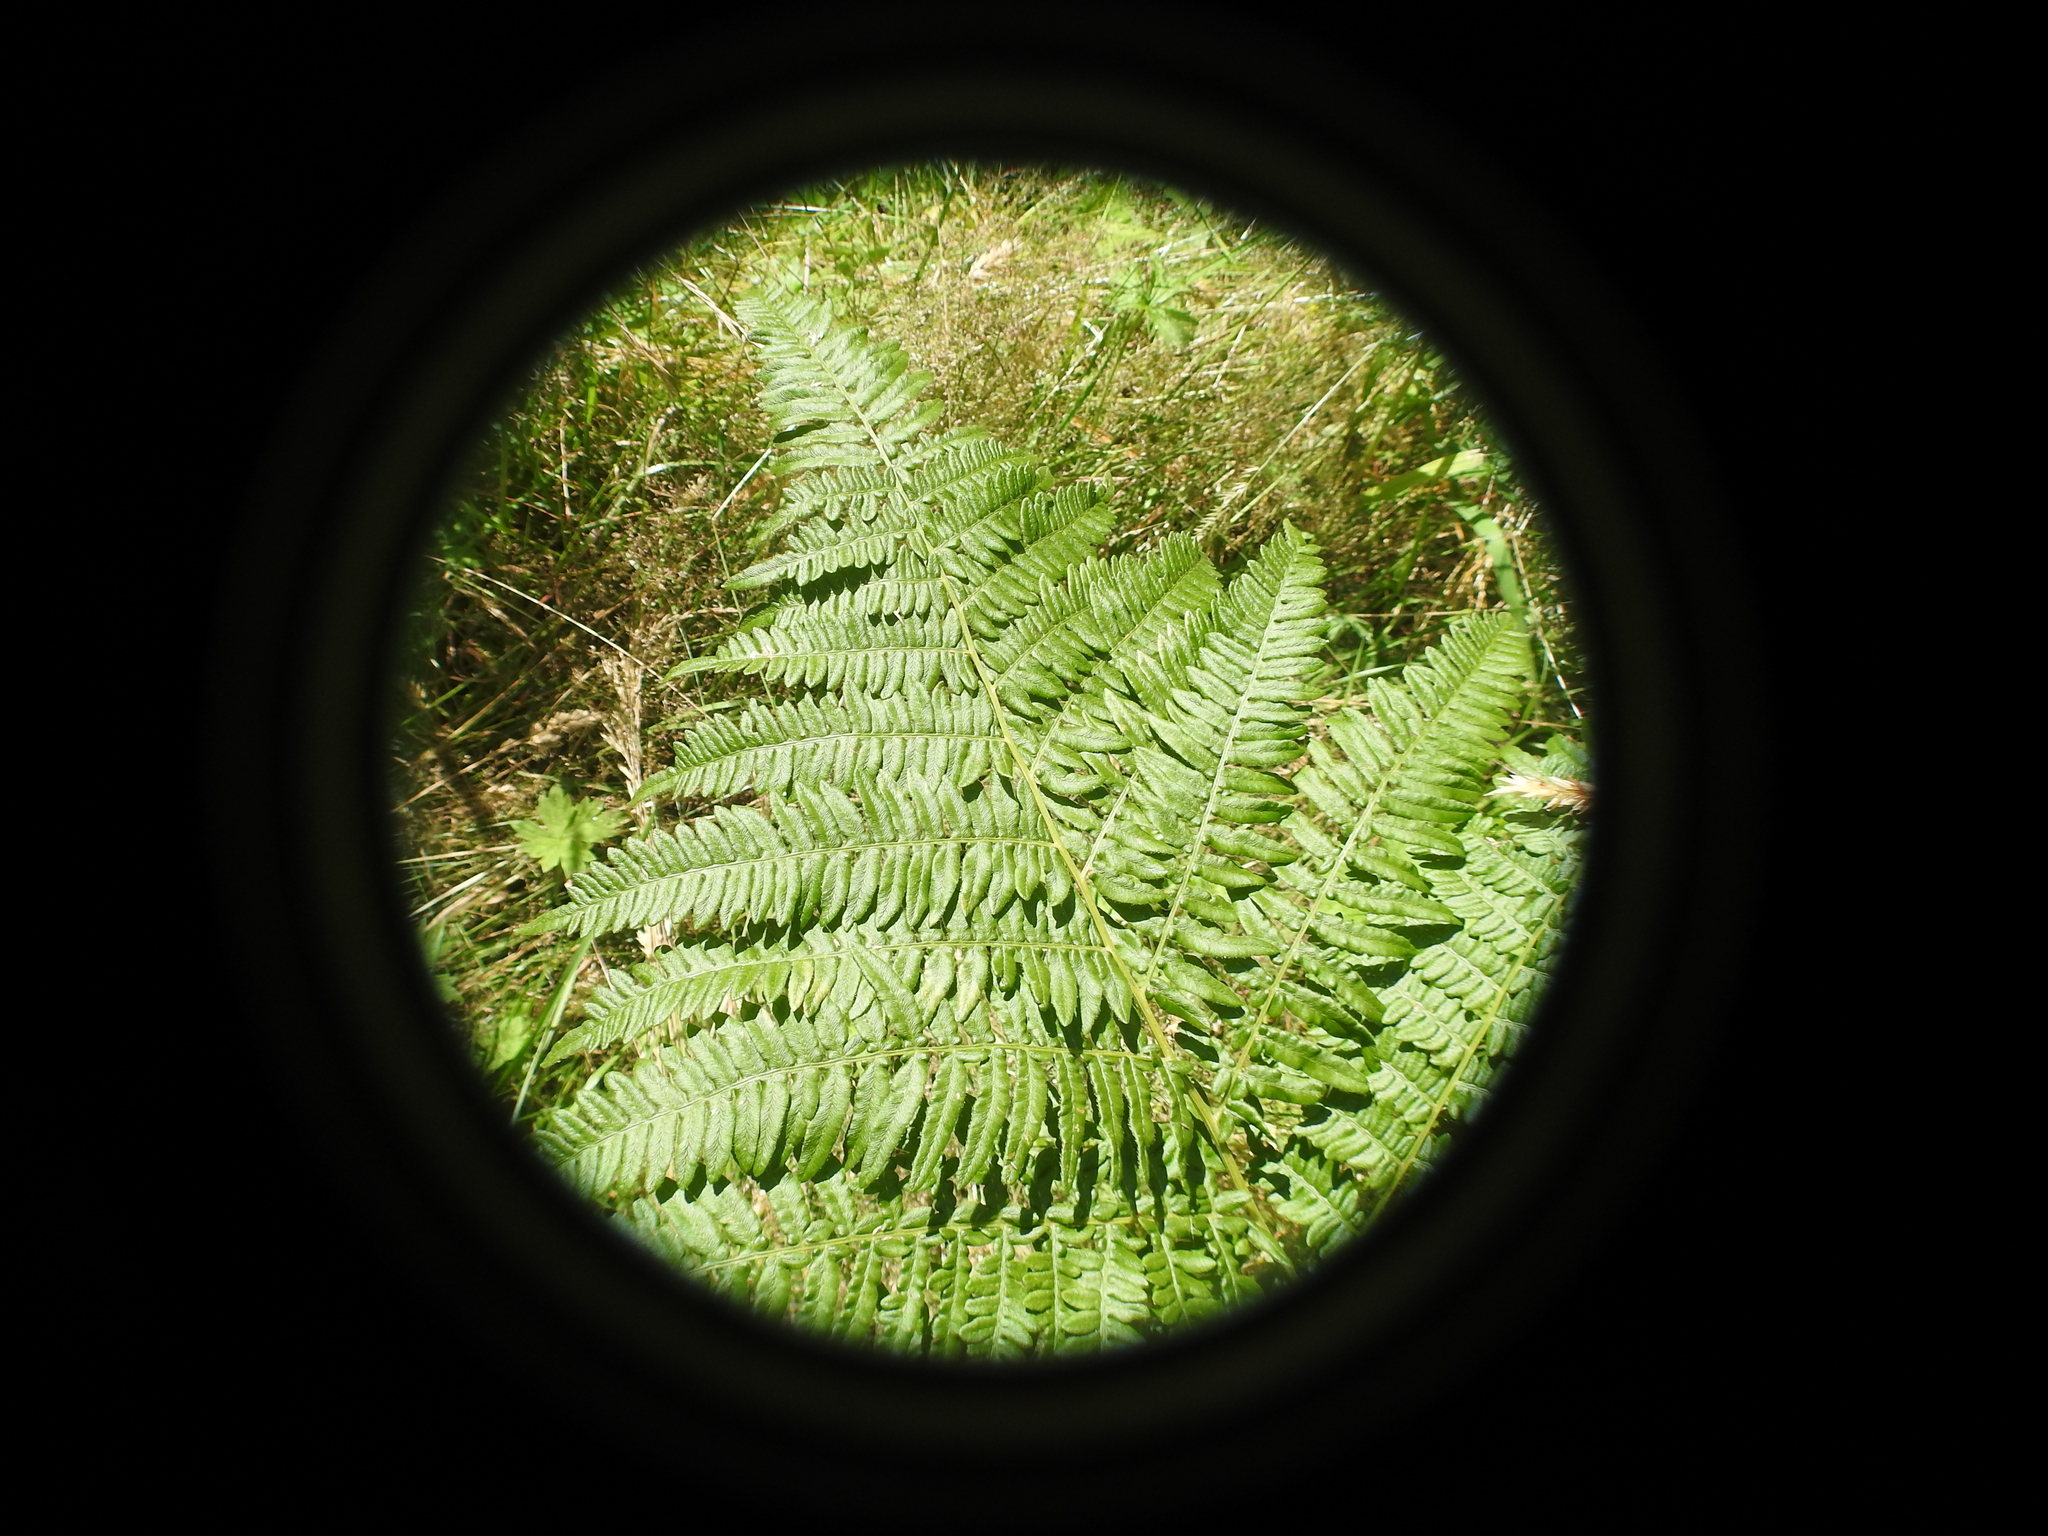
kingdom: Plantae
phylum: Tracheophyta
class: Polypodiopsida
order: Polypodiales
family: Dennstaedtiaceae
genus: Pteridium
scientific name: Pteridium aquilinum
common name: Bracken
